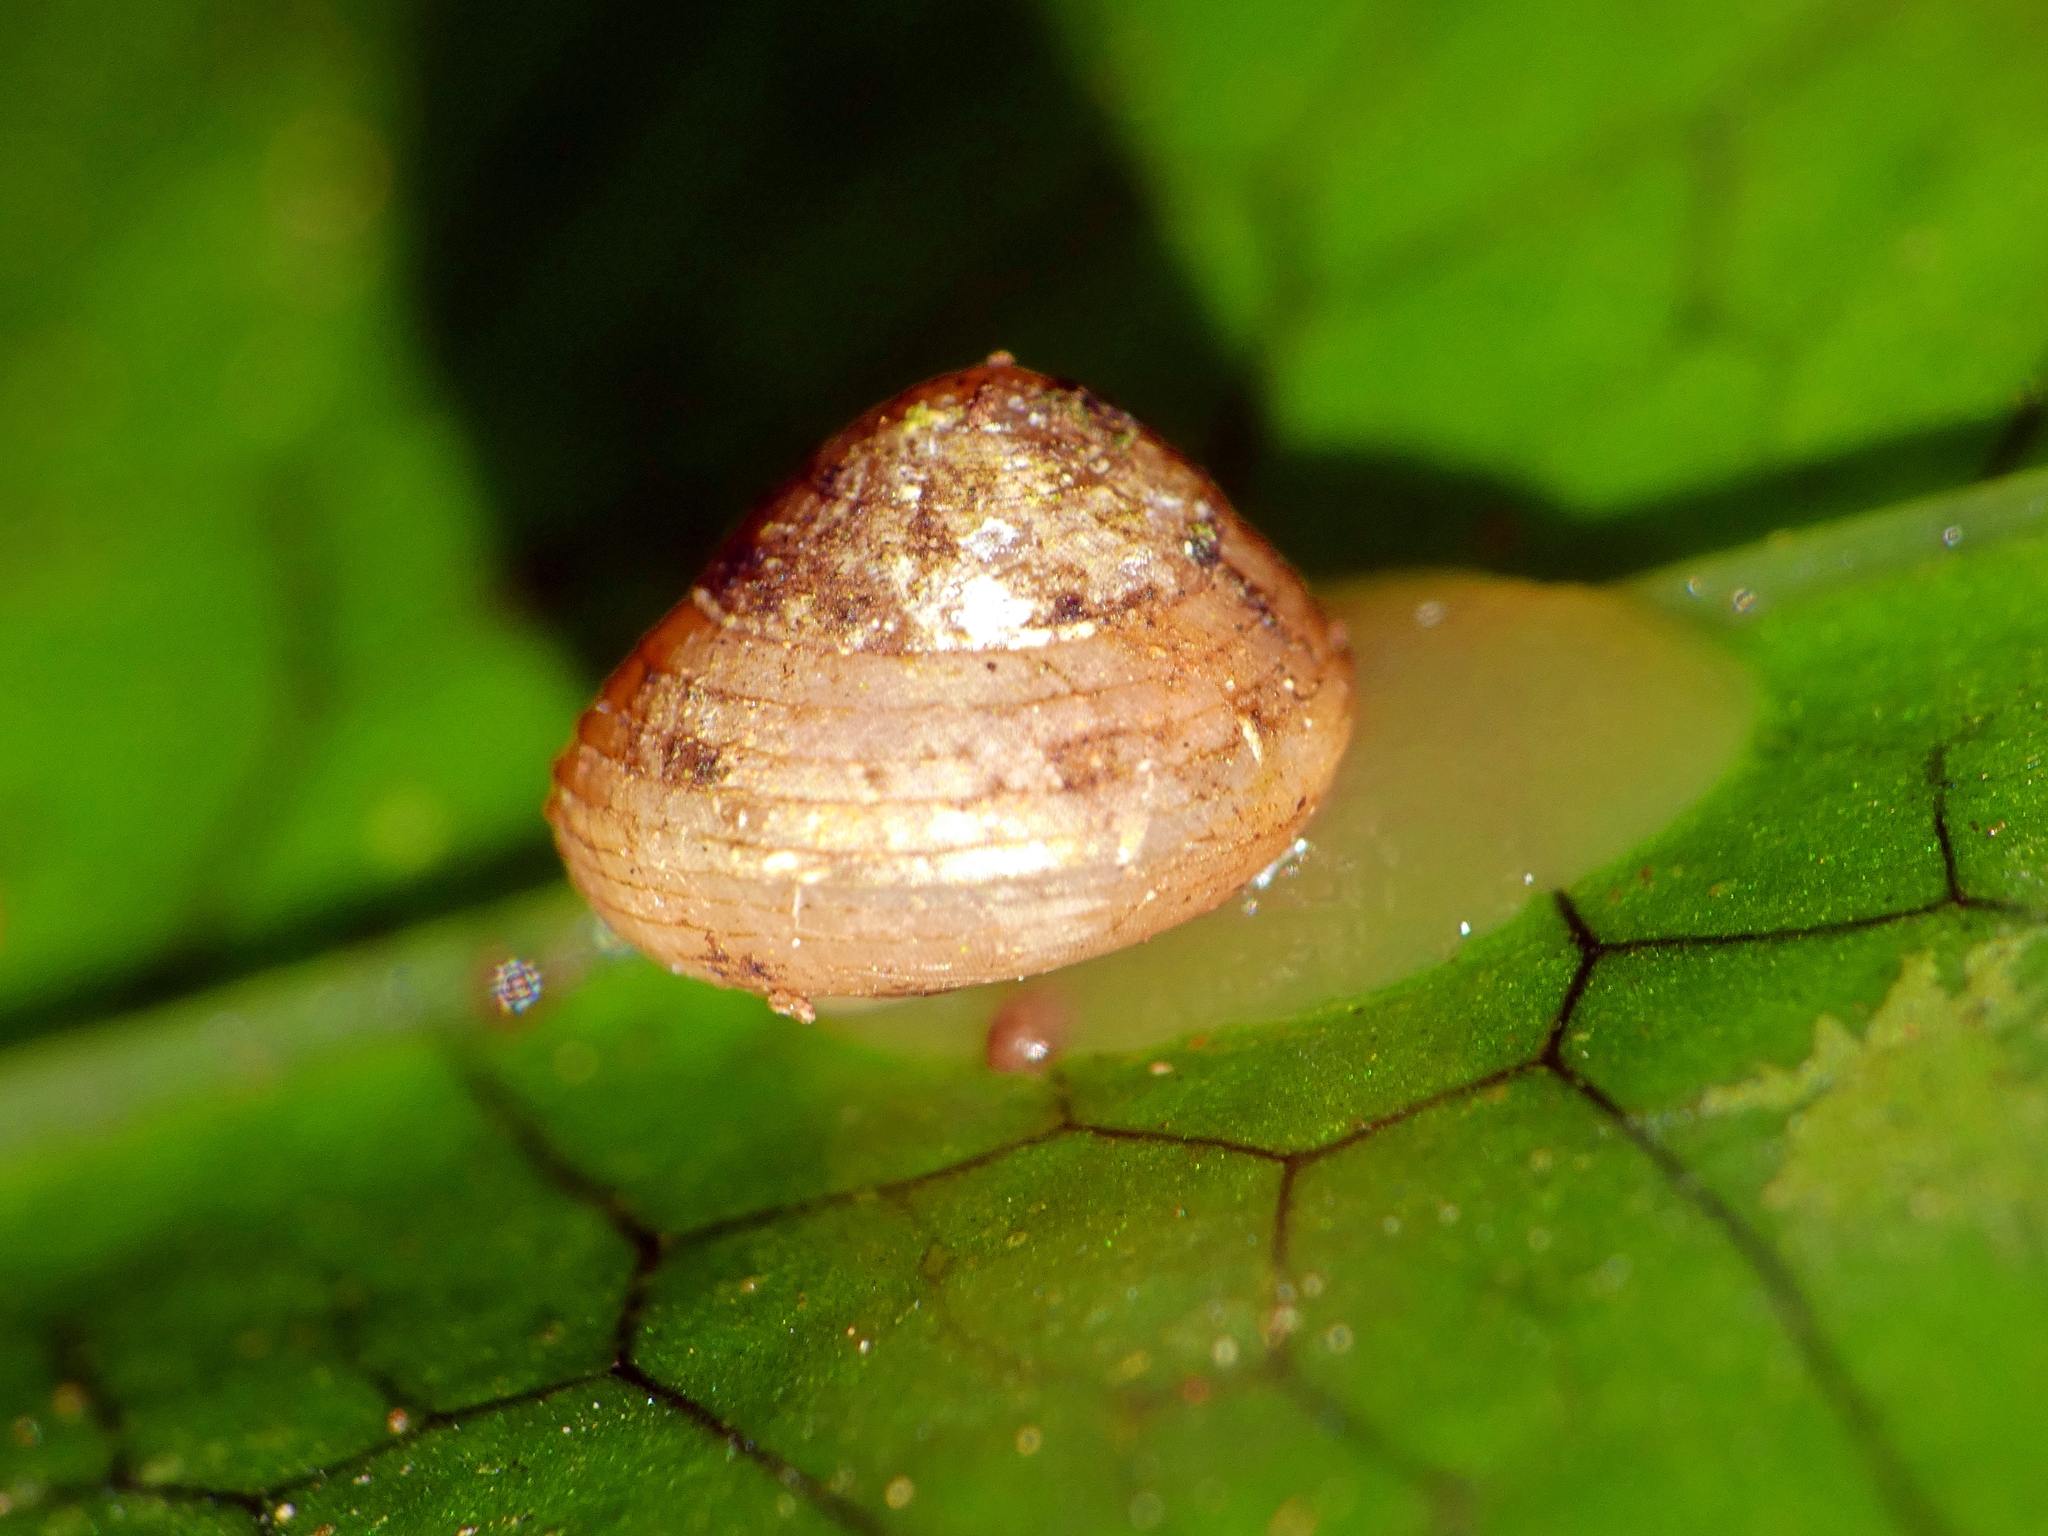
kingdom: Animalia
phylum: Mollusca
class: Gastropoda
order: Cycloneritida
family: Helicinidae
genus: Pleuropoma
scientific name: Pleuropoma macleayi
